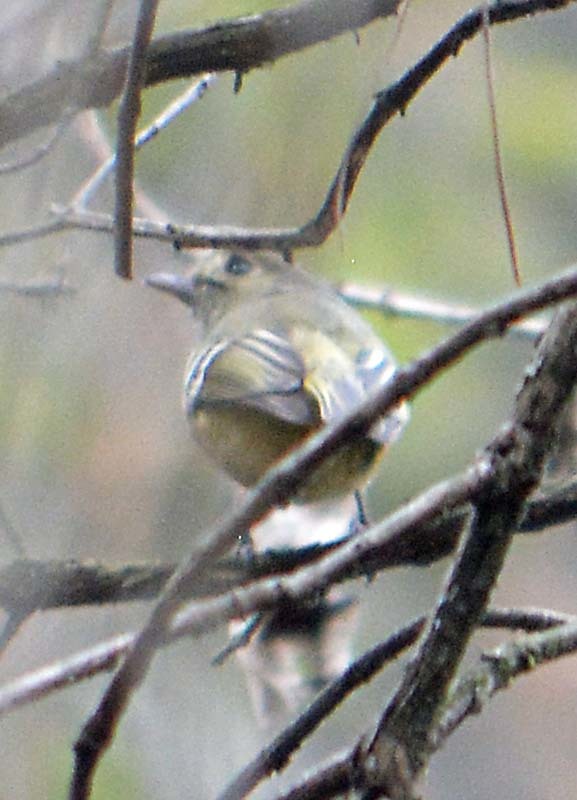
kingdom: Animalia
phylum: Chordata
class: Aves
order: Passeriformes
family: Vireonidae
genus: Vireo
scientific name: Vireo huttoni
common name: Hutton's vireo
